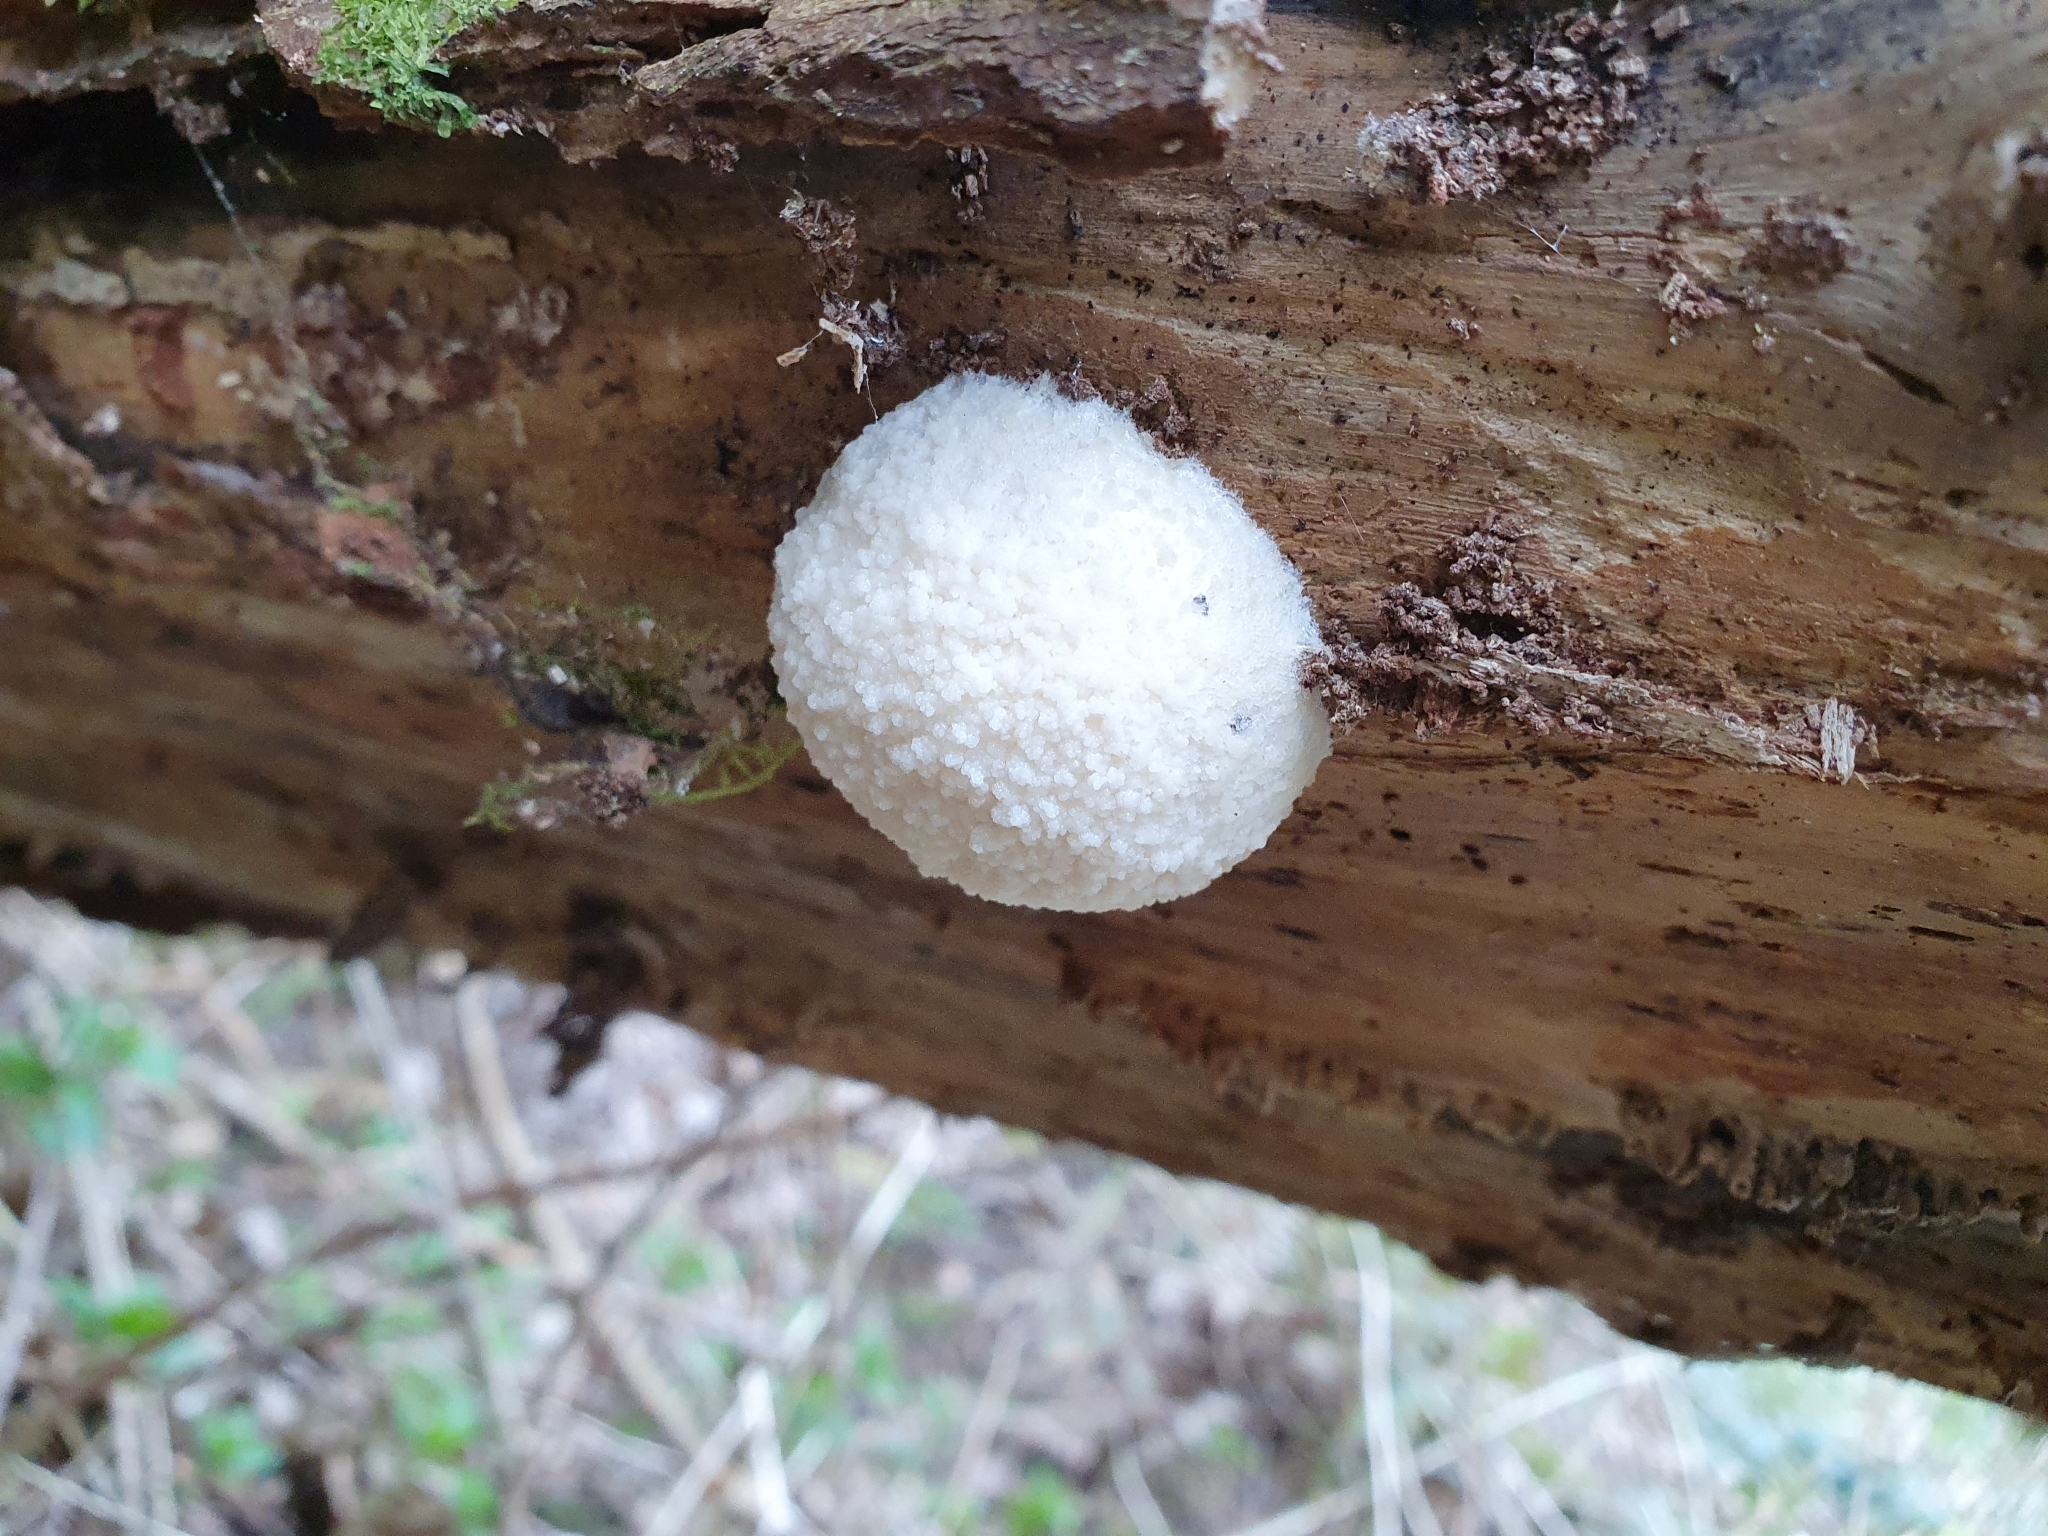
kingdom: Protozoa
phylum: Mycetozoa
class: Myxomycetes
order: Cribrariales
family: Tubiferaceae
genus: Reticularia
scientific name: Reticularia lycoperdon
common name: False puffball
